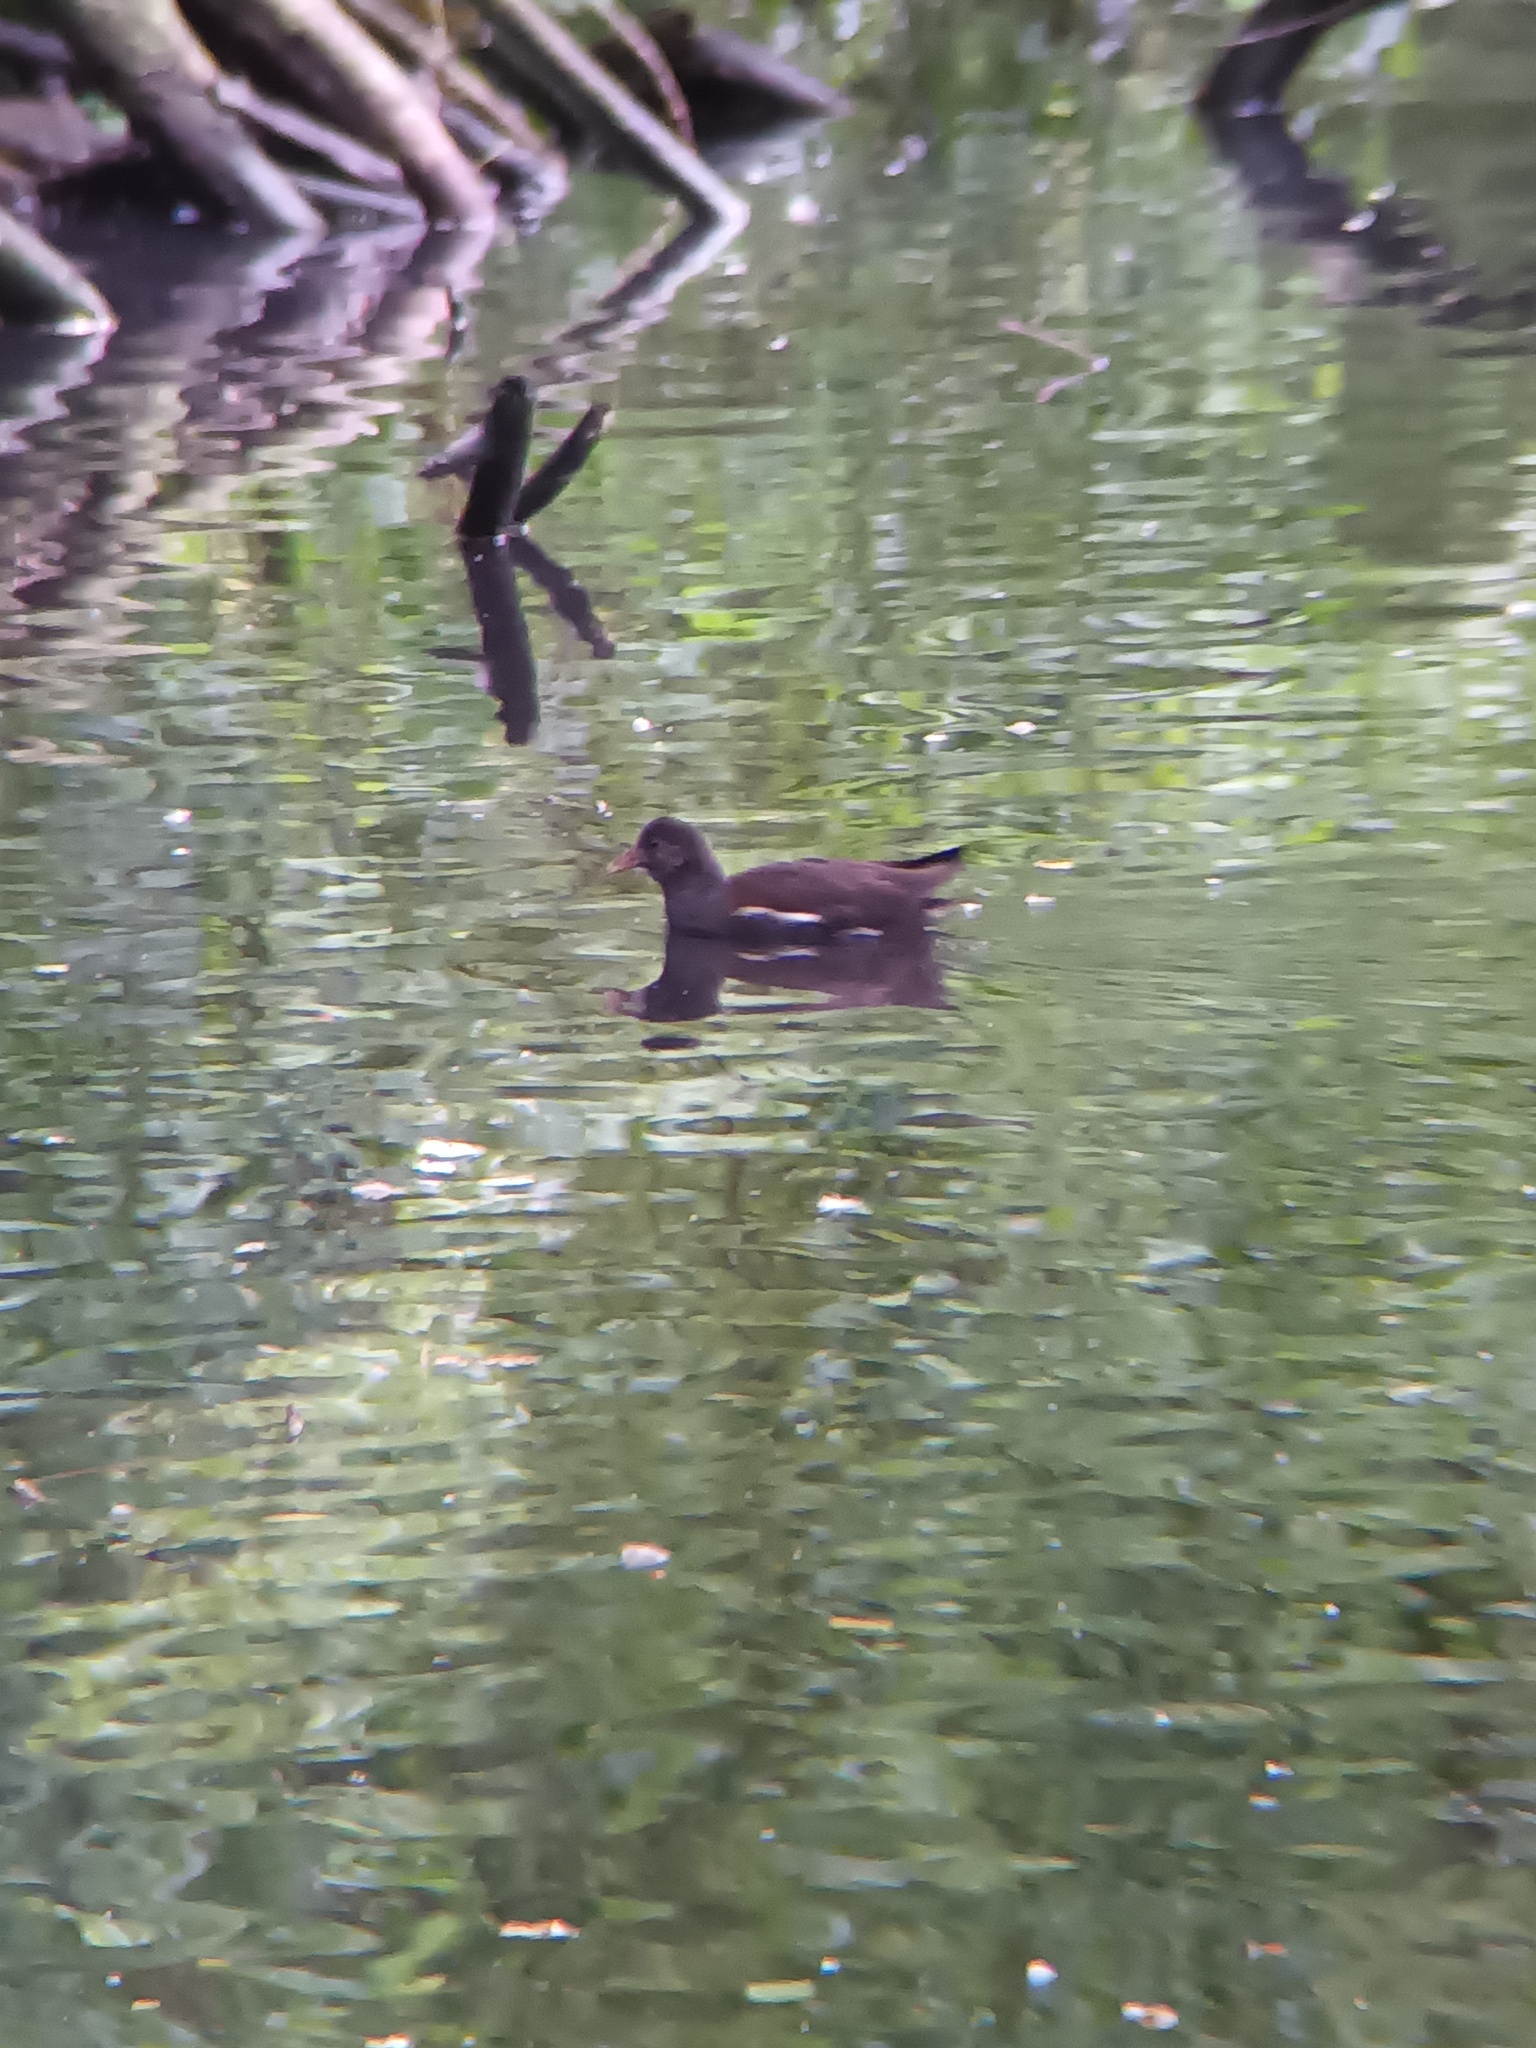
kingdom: Animalia
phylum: Chordata
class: Aves
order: Gruiformes
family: Rallidae
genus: Gallinula
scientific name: Gallinula chloropus
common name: Common moorhen
